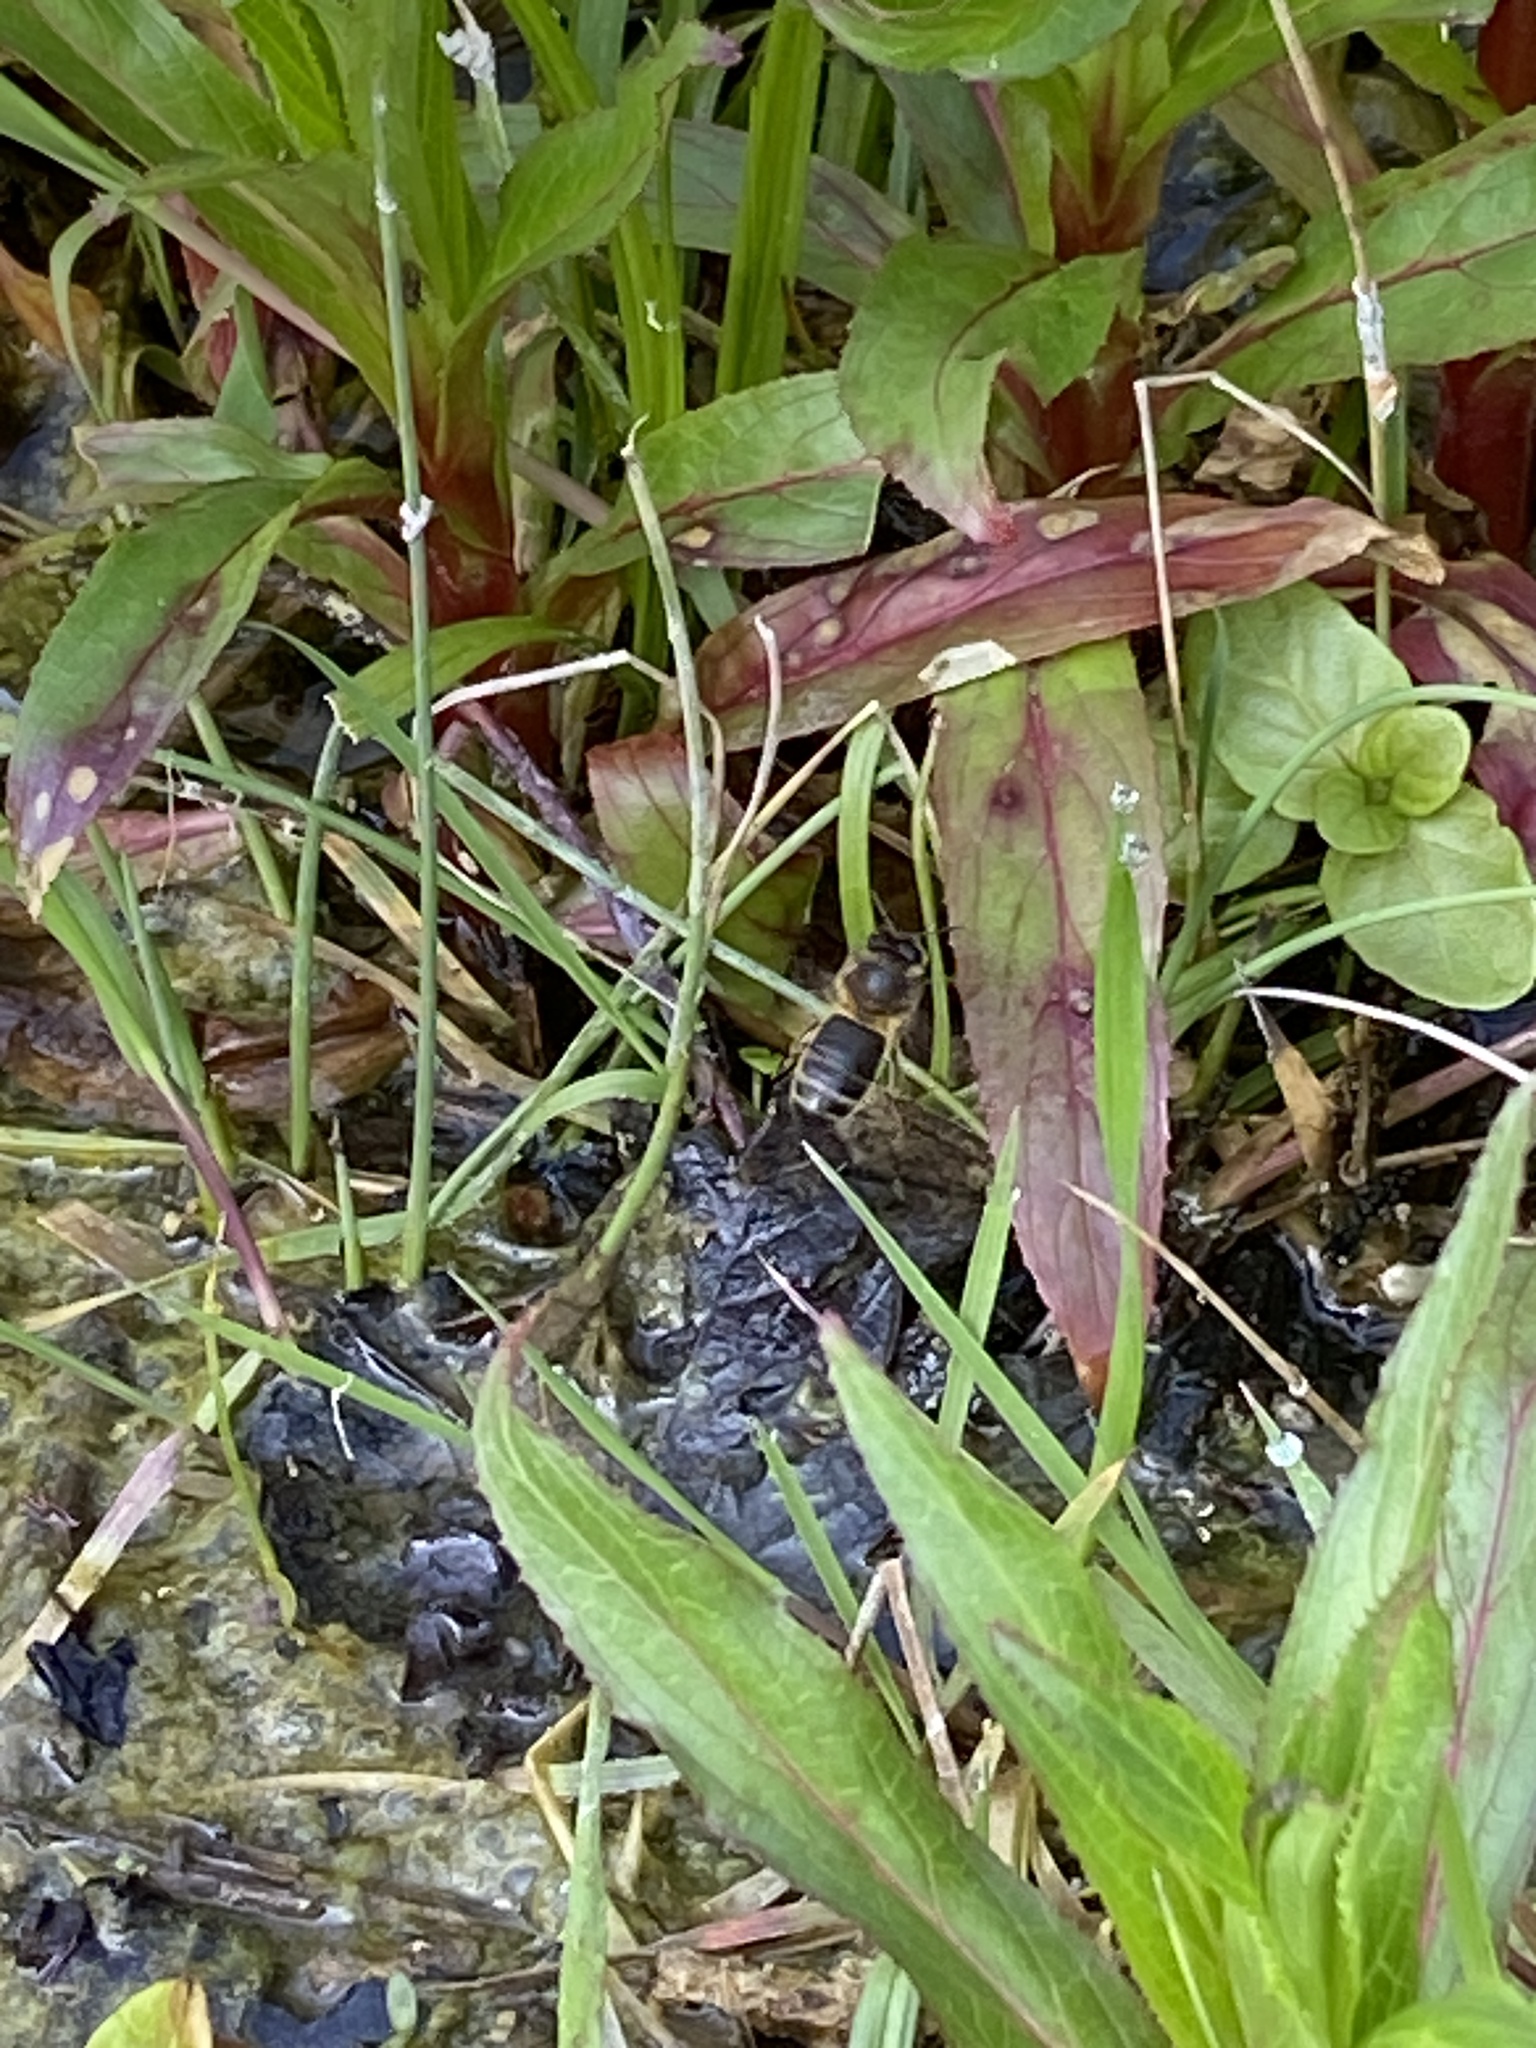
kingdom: Animalia
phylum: Arthropoda
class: Insecta
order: Hymenoptera
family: Apidae
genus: Apis
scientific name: Apis mellifera
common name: Honey bee
